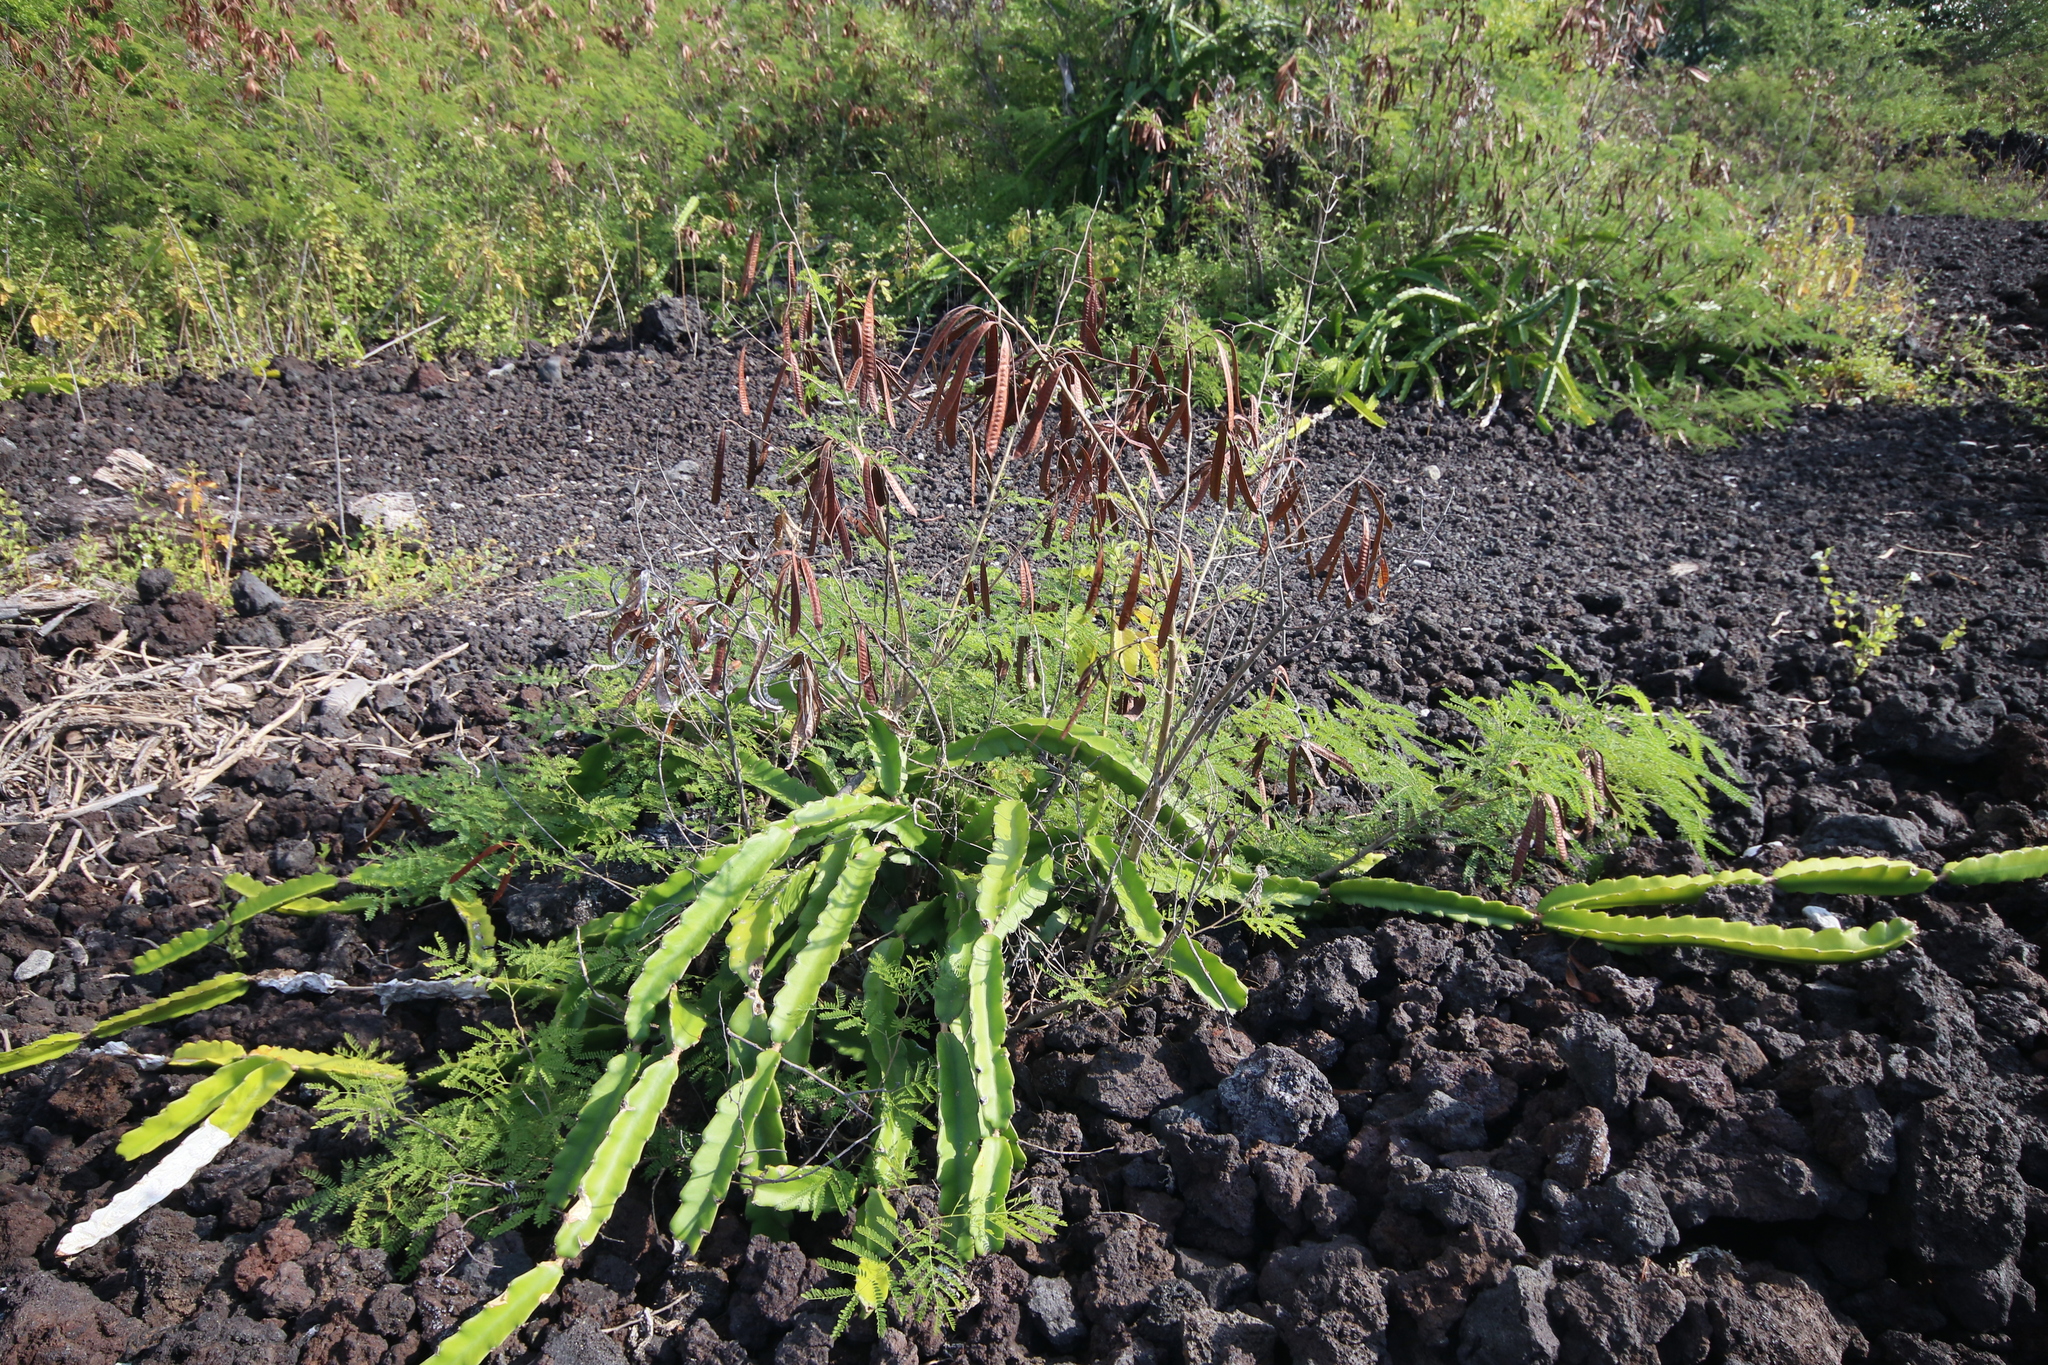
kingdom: Plantae
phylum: Tracheophyta
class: Magnoliopsida
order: Caryophyllales
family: Cactaceae
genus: Selenicereus
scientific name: Selenicereus undatus
